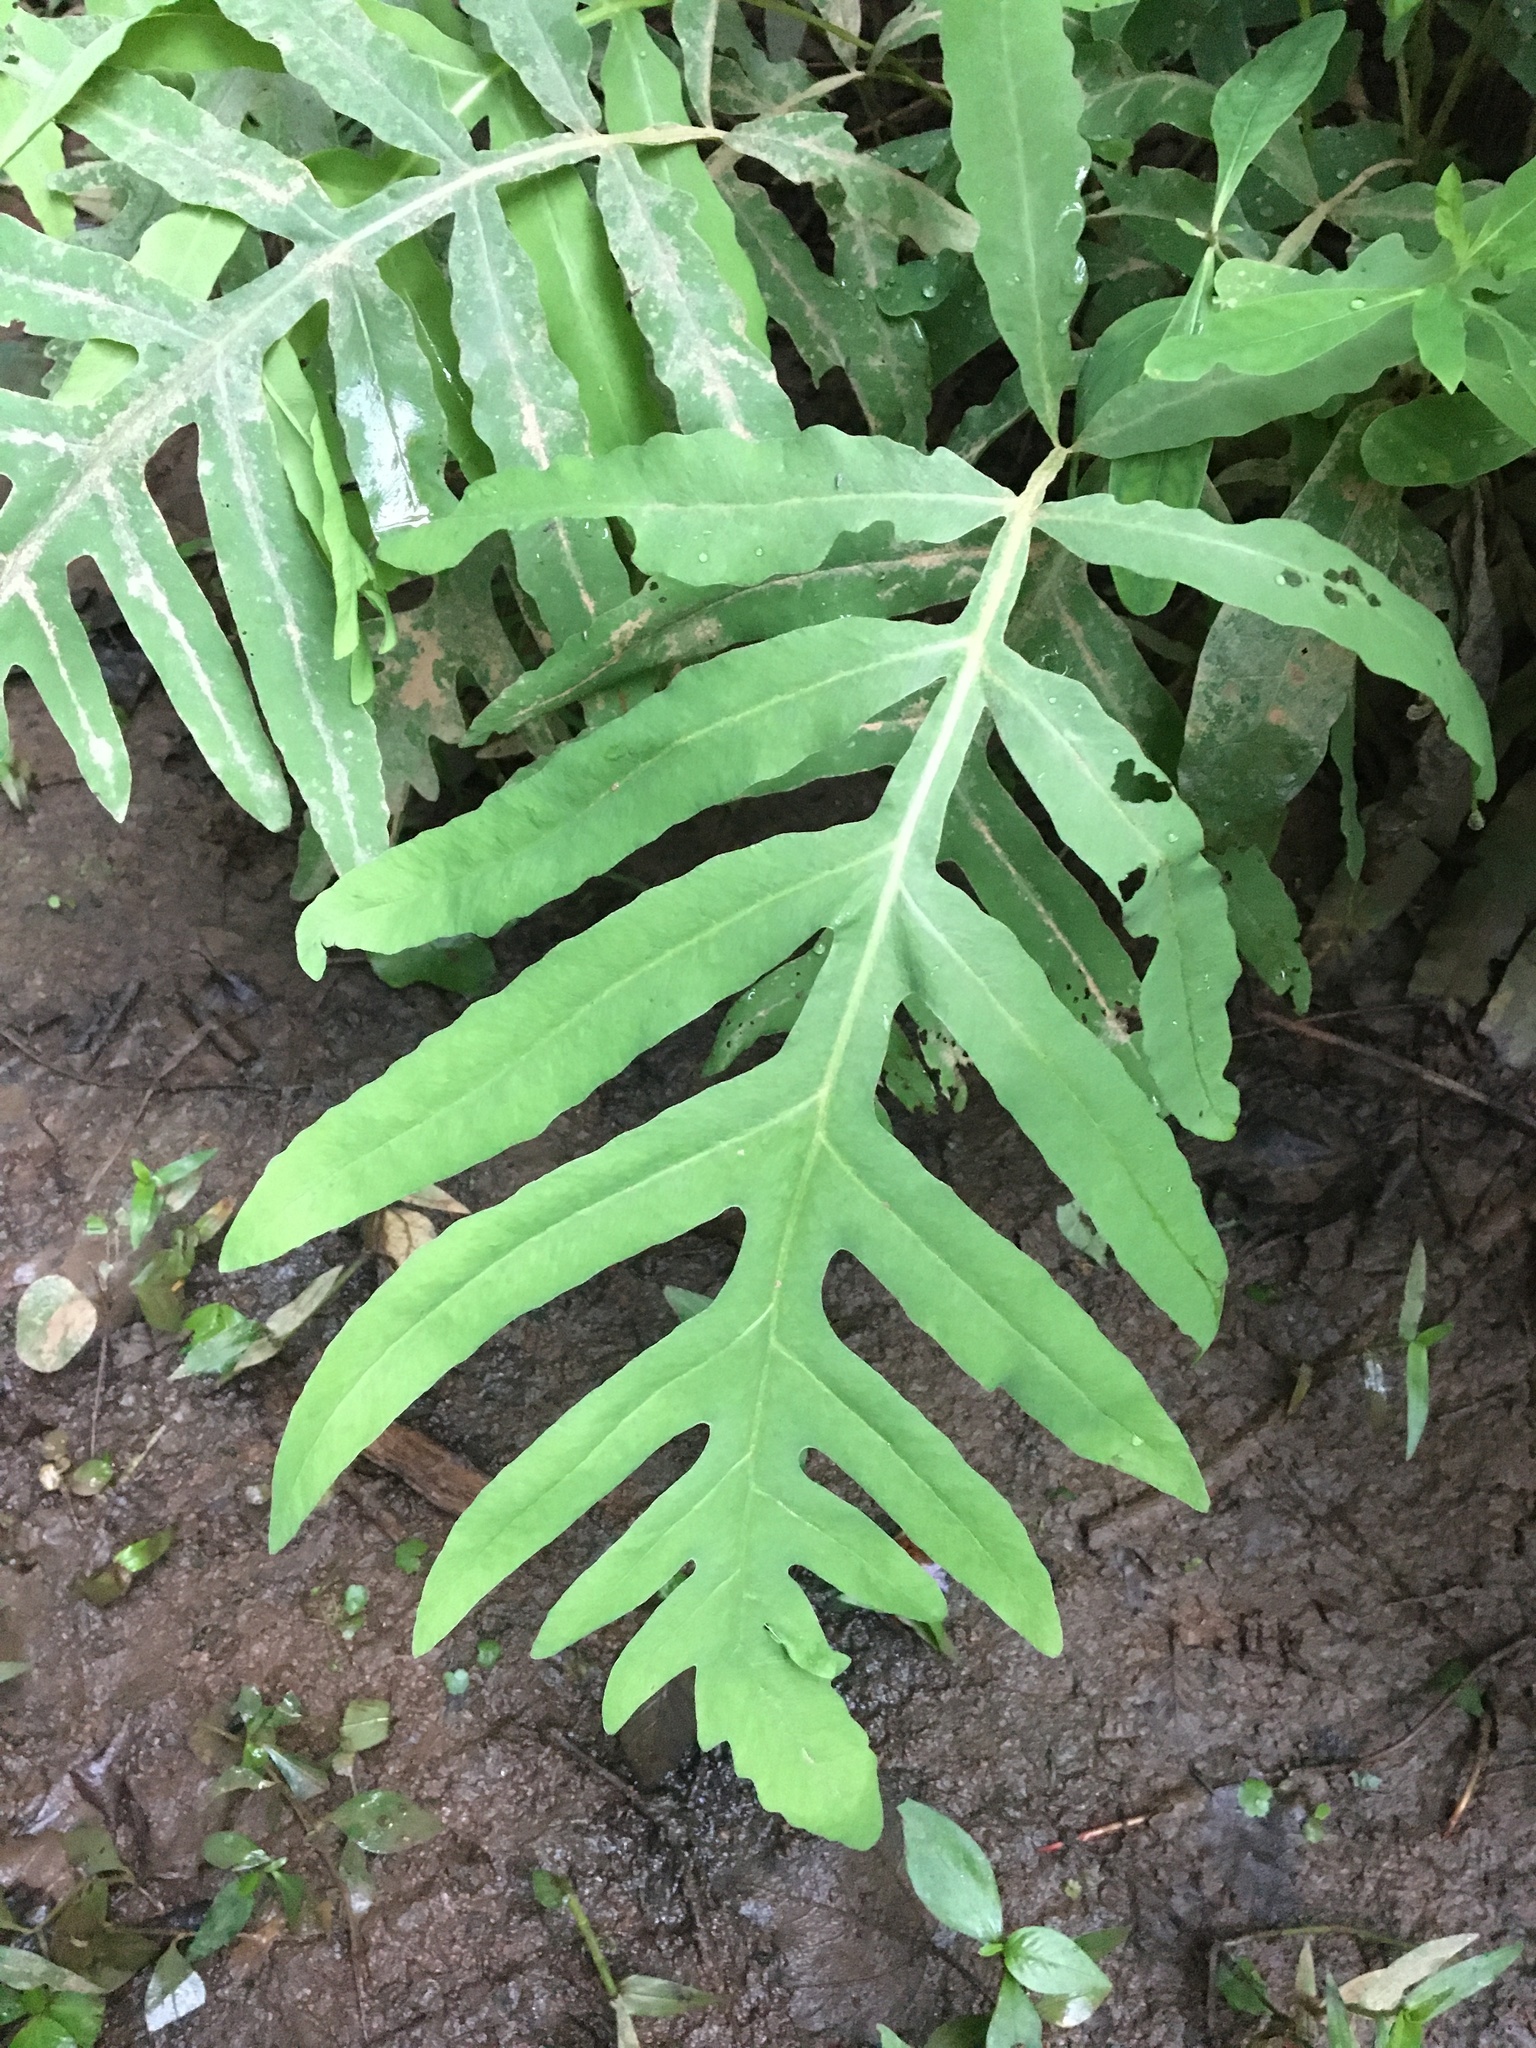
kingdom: Plantae
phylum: Tracheophyta
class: Polypodiopsida
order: Polypodiales
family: Onocleaceae
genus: Onoclea
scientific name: Onoclea sensibilis
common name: Sensitive fern
